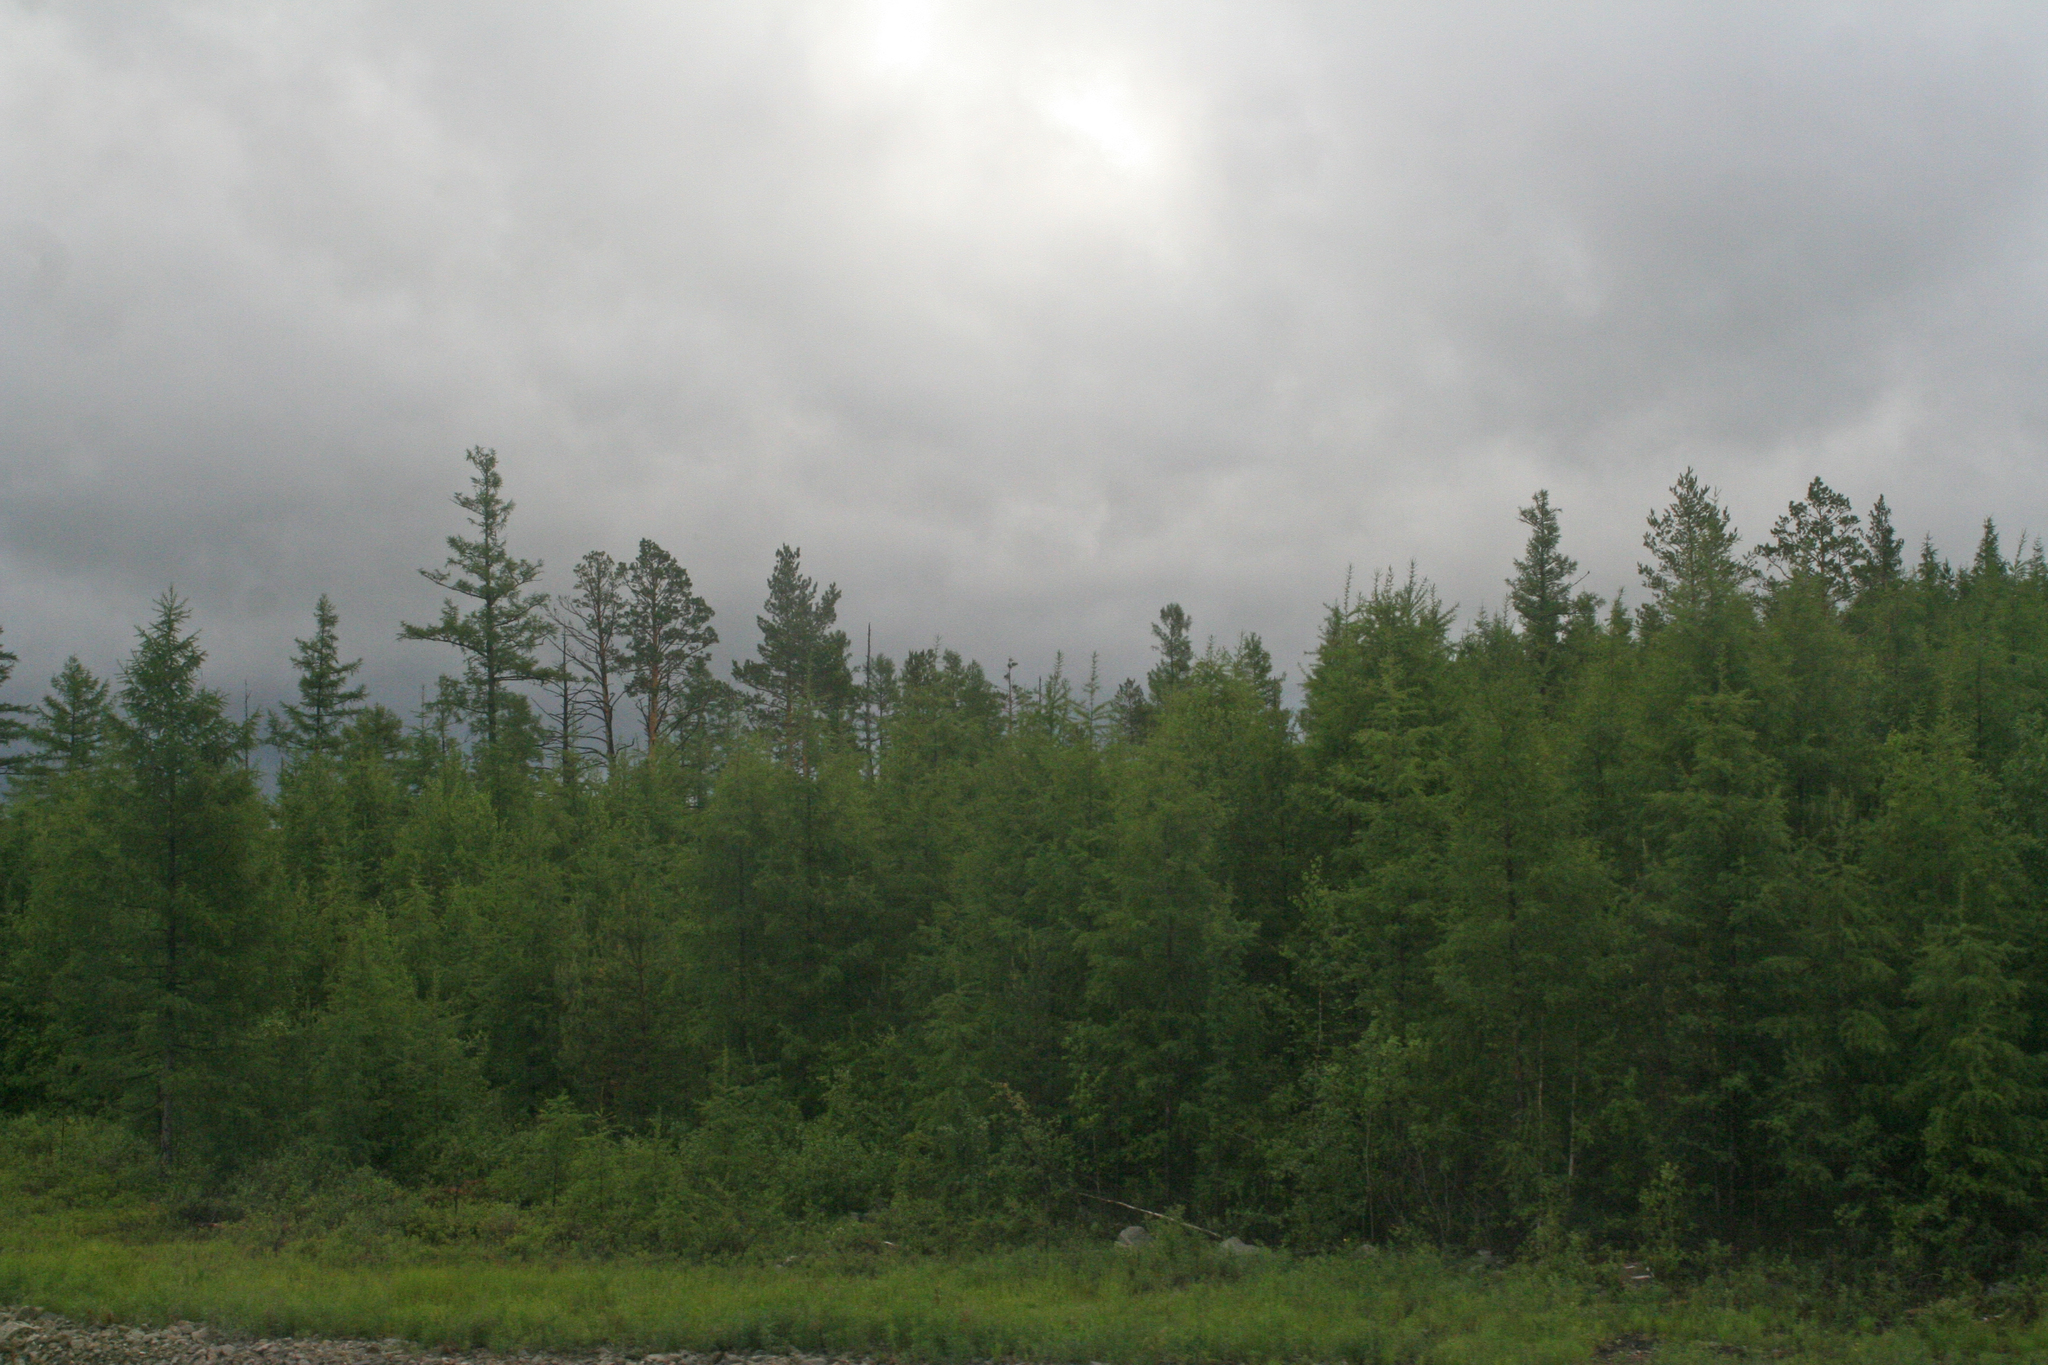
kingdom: Plantae
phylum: Tracheophyta
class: Pinopsida
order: Pinales
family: Pinaceae
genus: Larix
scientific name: Larix gmelinii
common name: Dahurian larch
